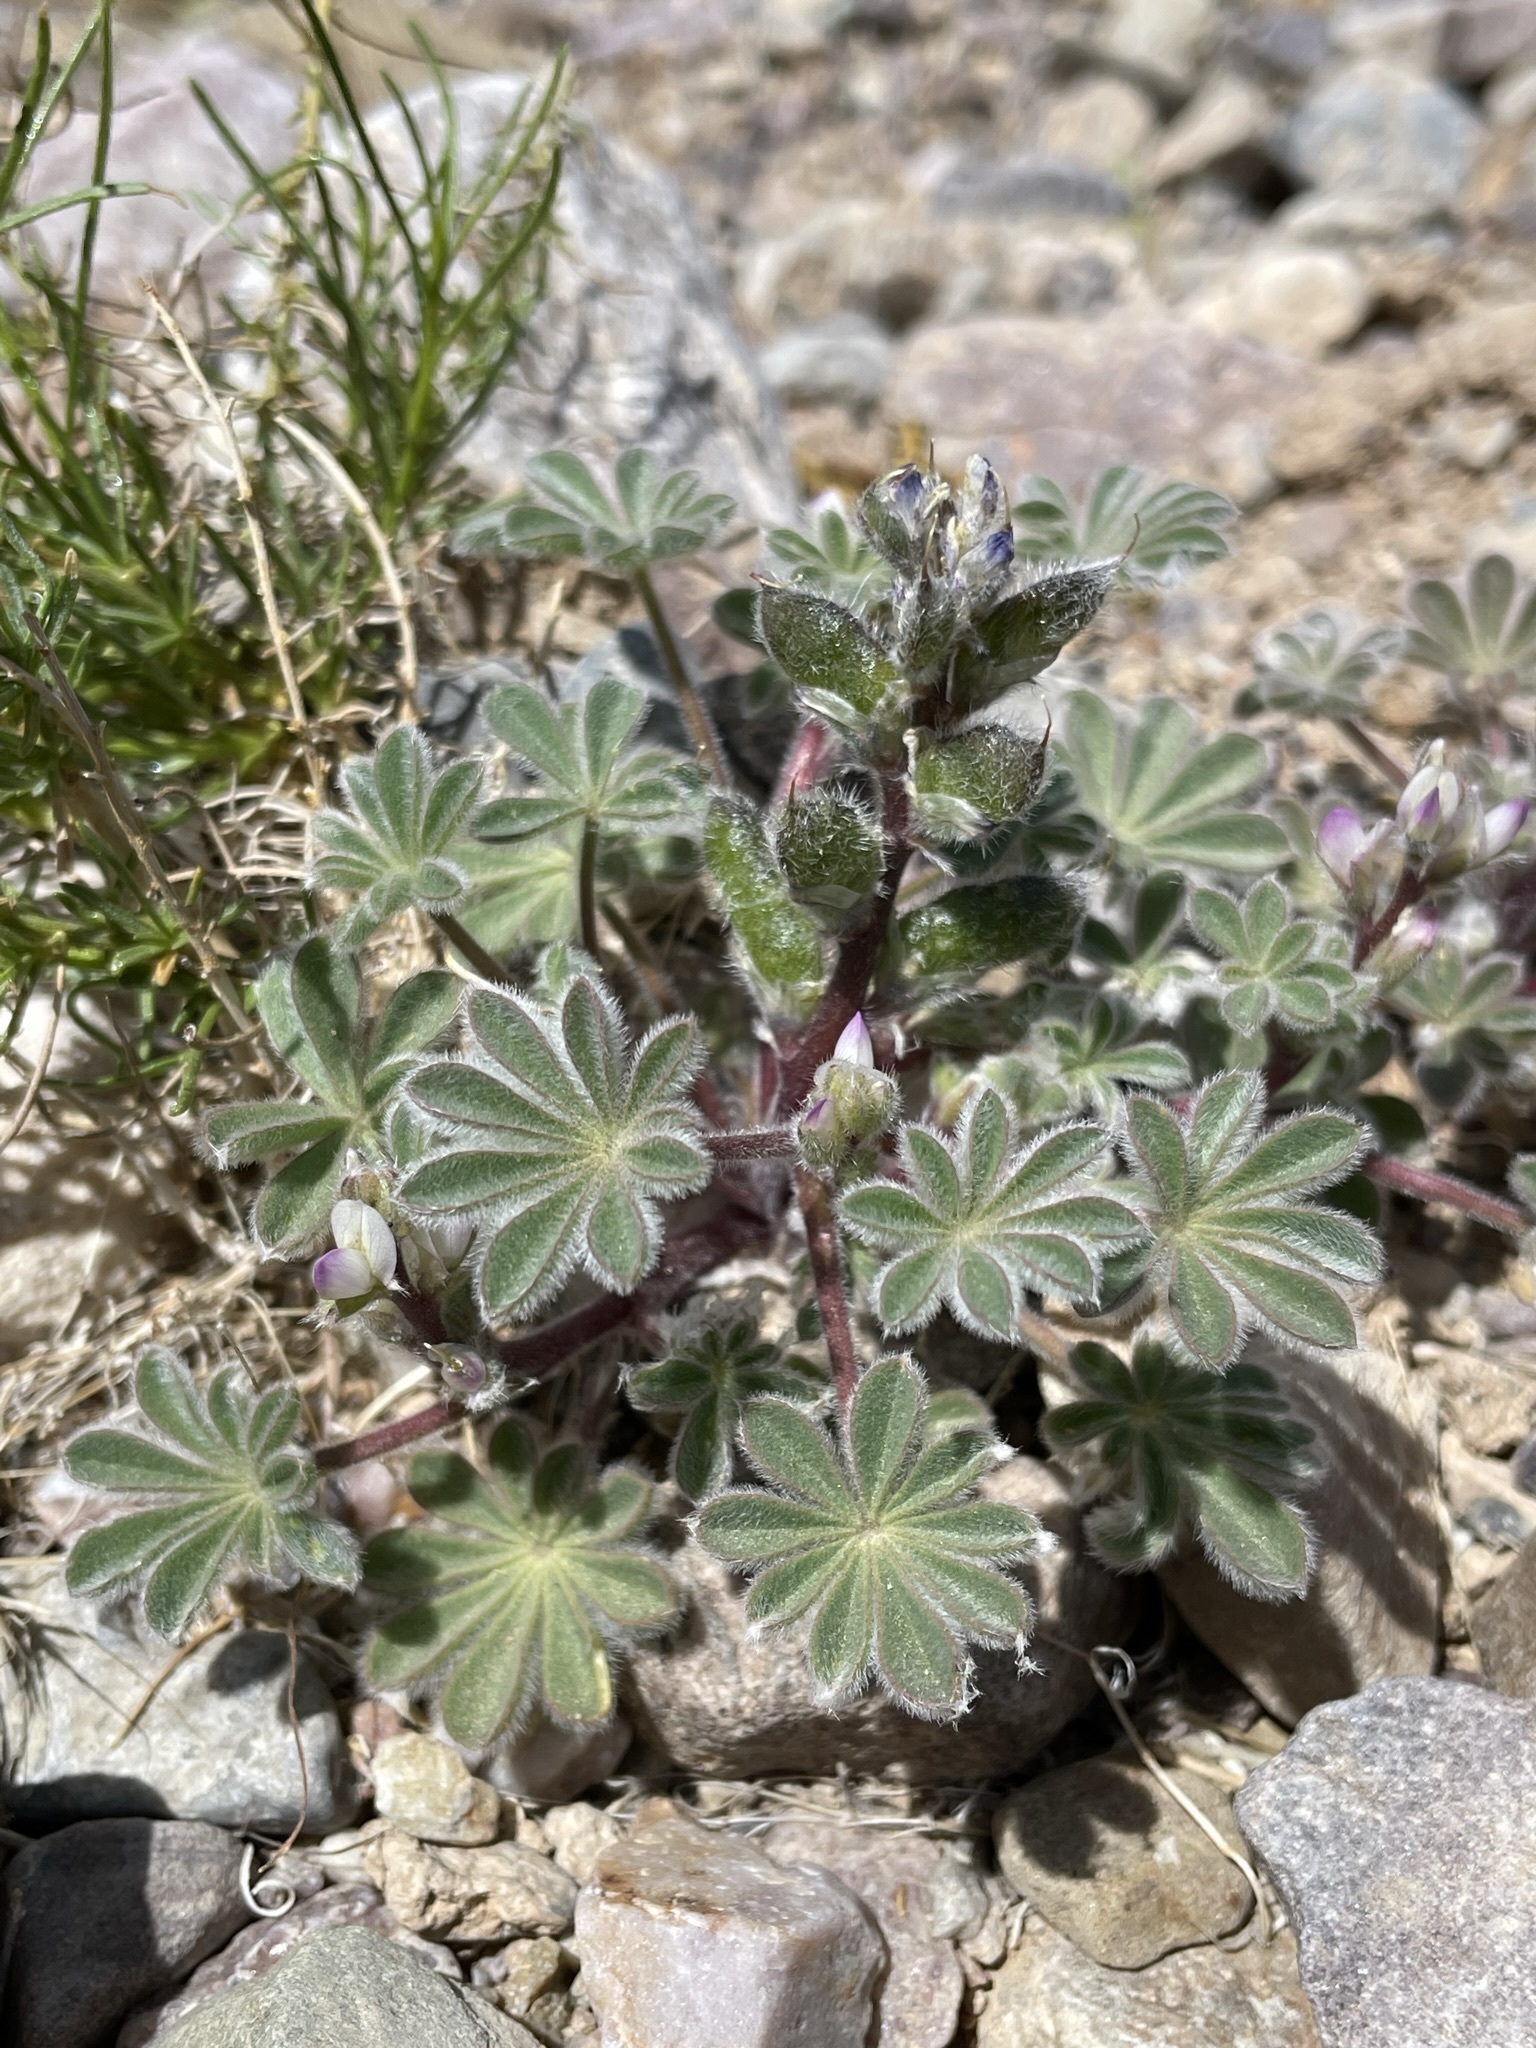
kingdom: Plantae
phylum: Tracheophyta
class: Magnoliopsida
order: Fabales
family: Fabaceae
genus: Lupinus
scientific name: Lupinus concinnus
